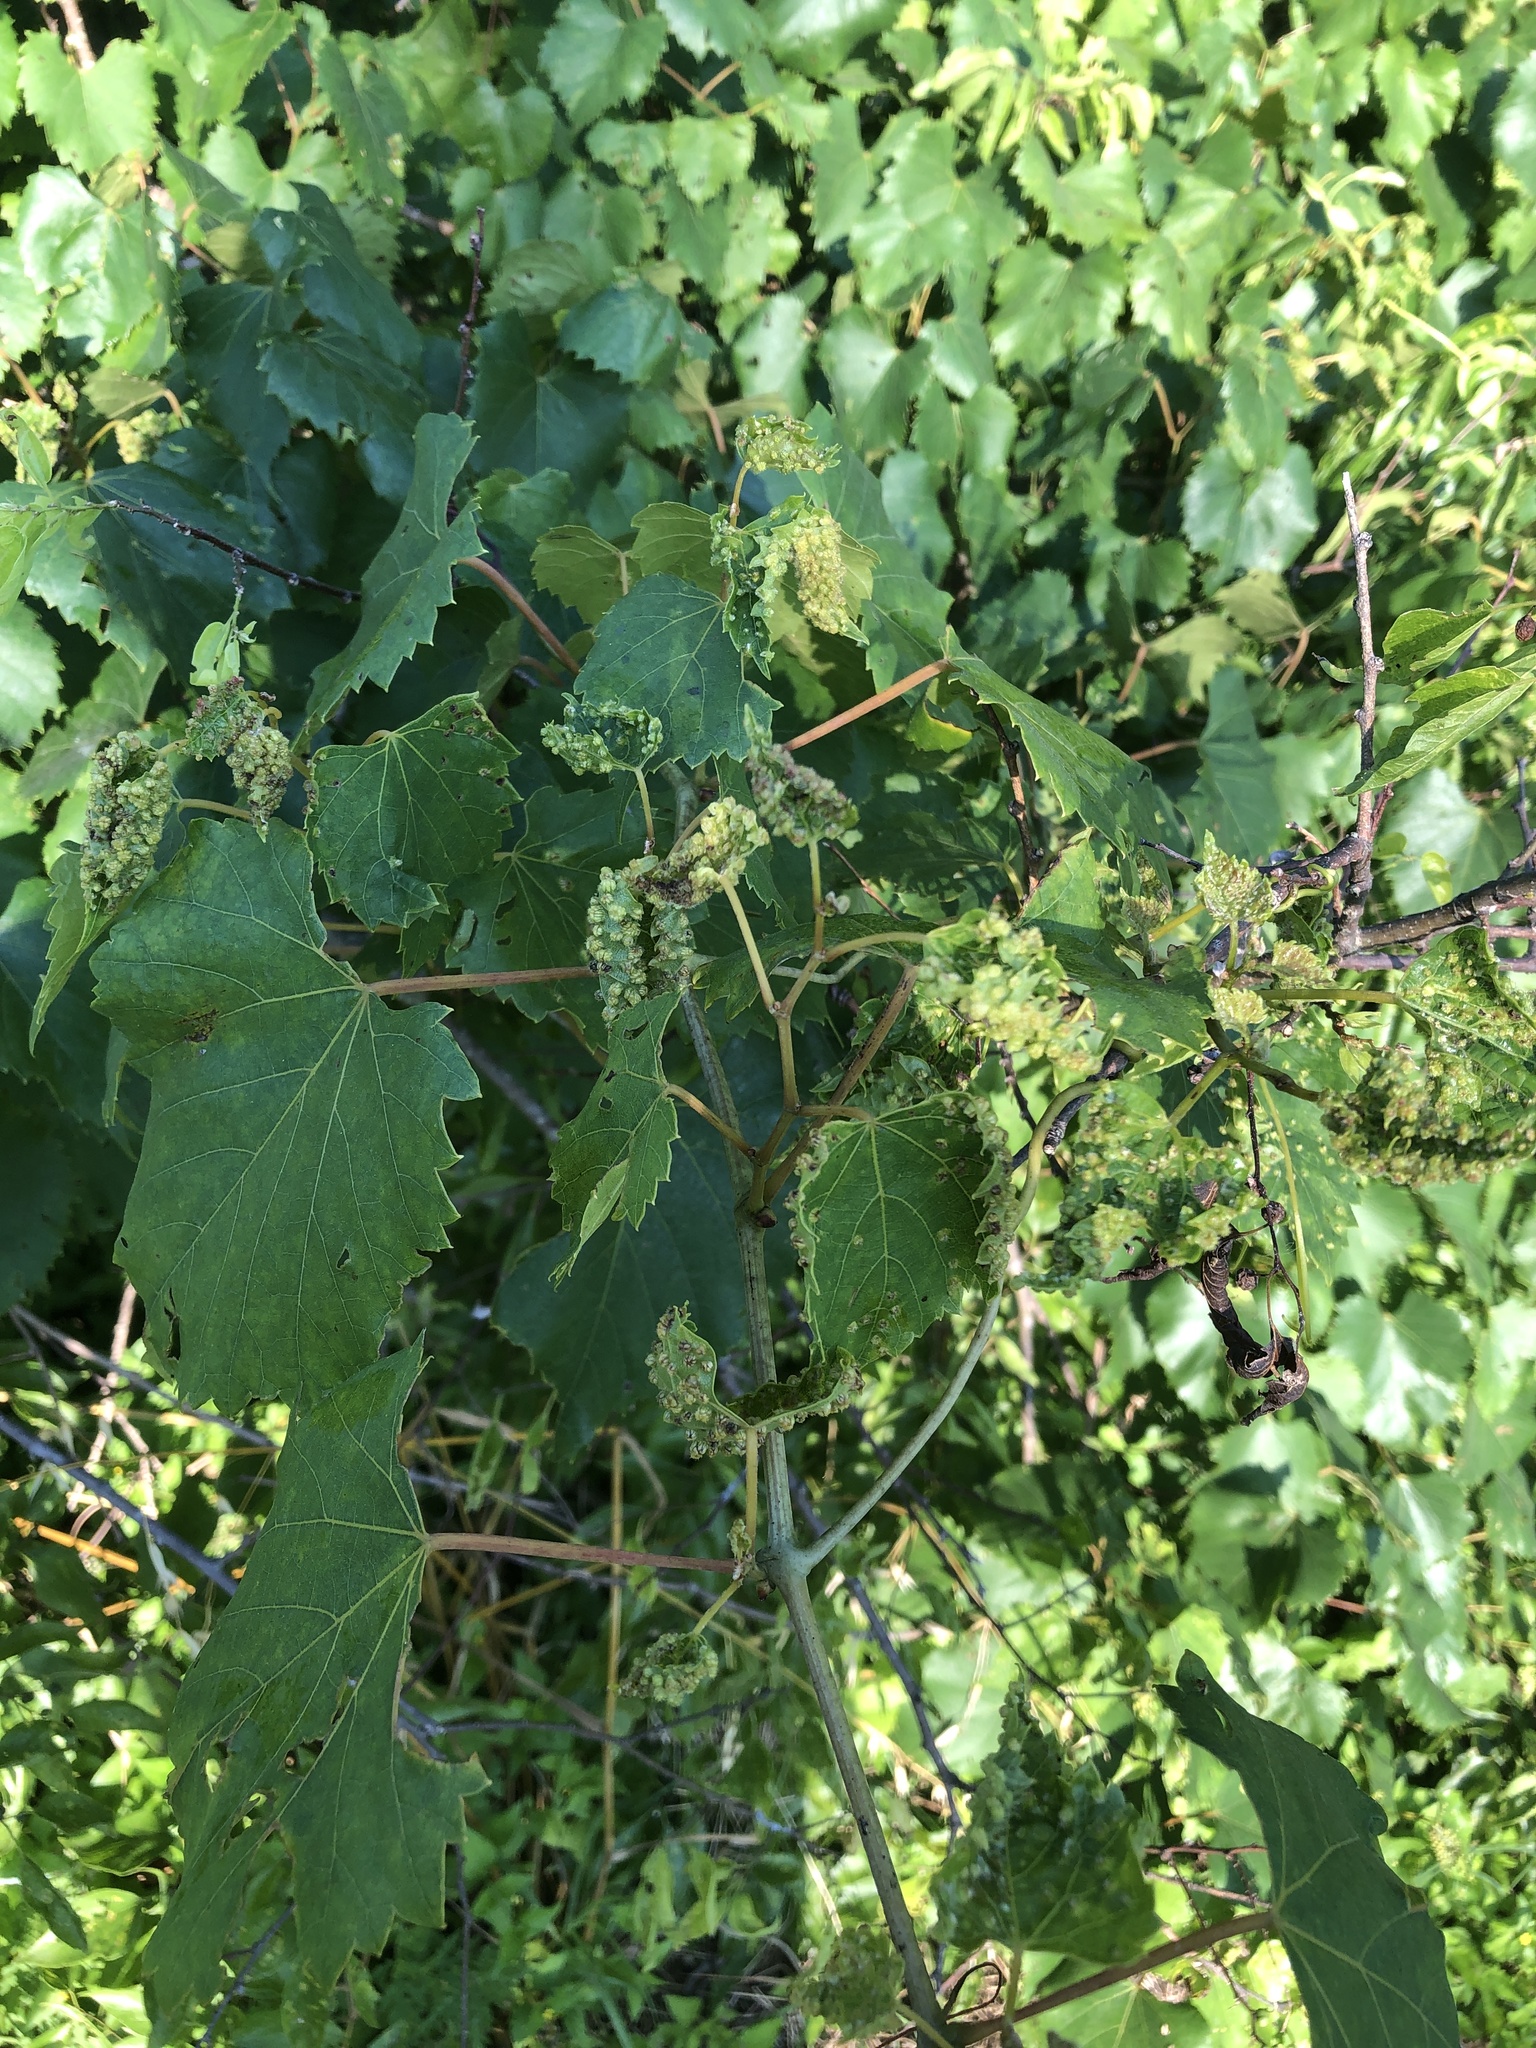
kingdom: Animalia
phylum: Arthropoda
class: Insecta
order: Hemiptera
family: Phylloxeridae
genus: Daktulosphaira
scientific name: Daktulosphaira vitifoliae
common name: Grape phylloxera
